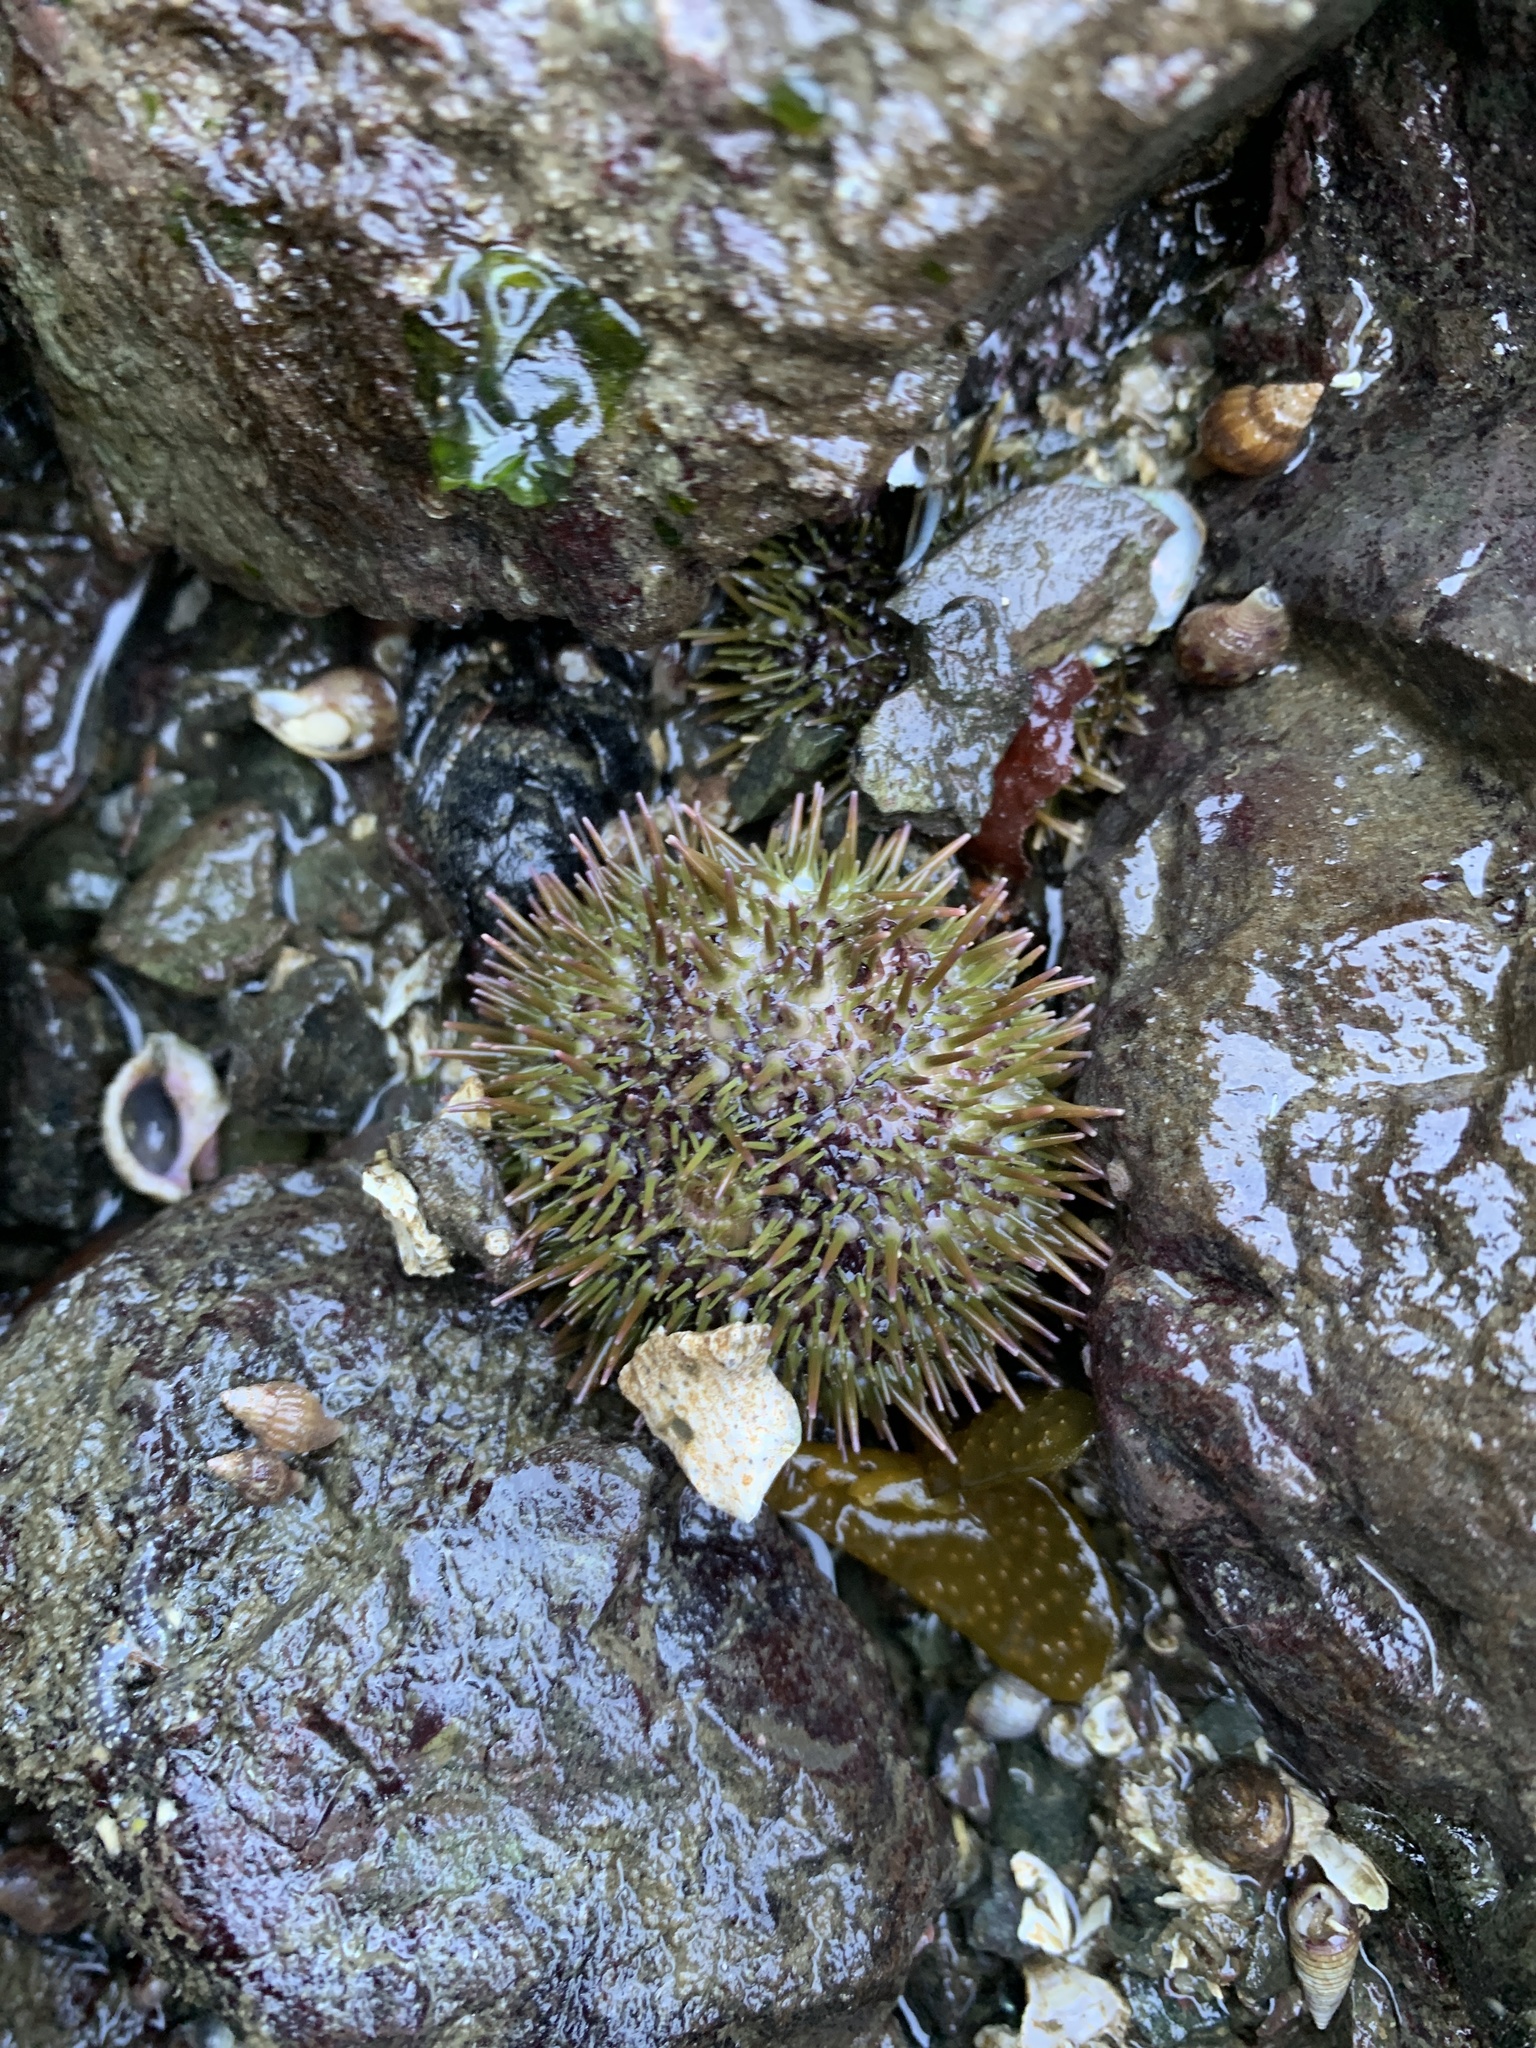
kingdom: Animalia
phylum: Echinodermata
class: Echinoidea
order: Camarodonta
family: Strongylocentrotidae
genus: Strongylocentrotus
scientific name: Strongylocentrotus droebachiensis
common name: Northern sea urchin
